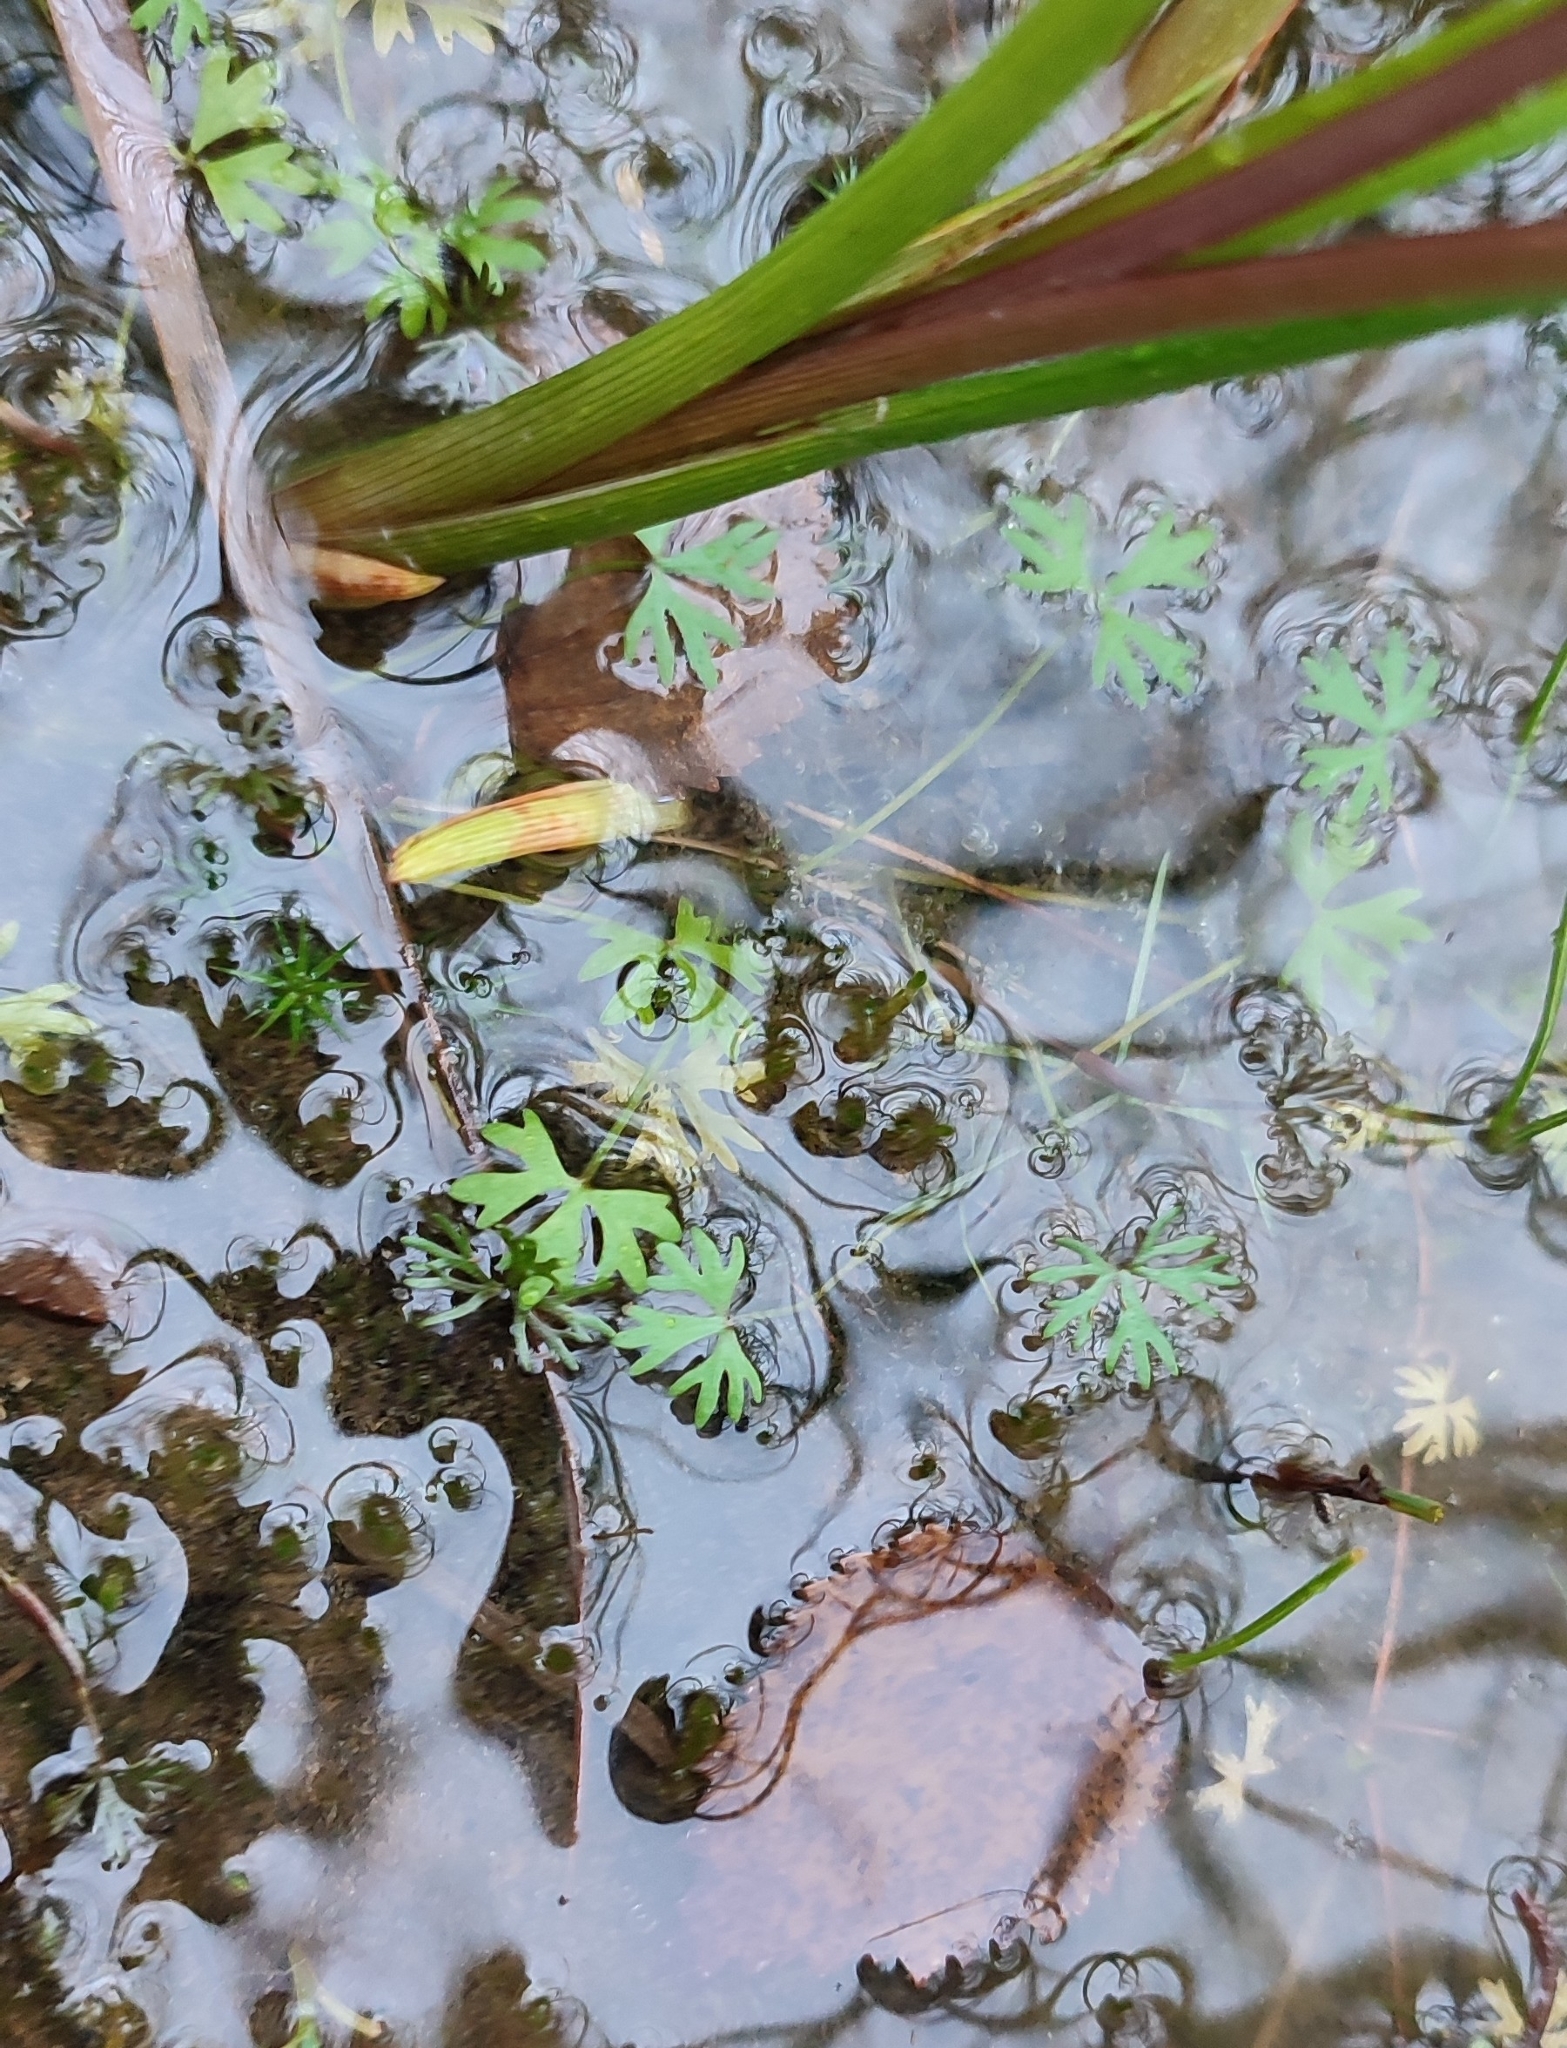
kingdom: Plantae
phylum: Tracheophyta
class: Magnoliopsida
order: Ranunculales
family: Ranunculaceae
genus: Ranunculus
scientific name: Ranunculus gmelinii
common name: Gmelin's buttercup
